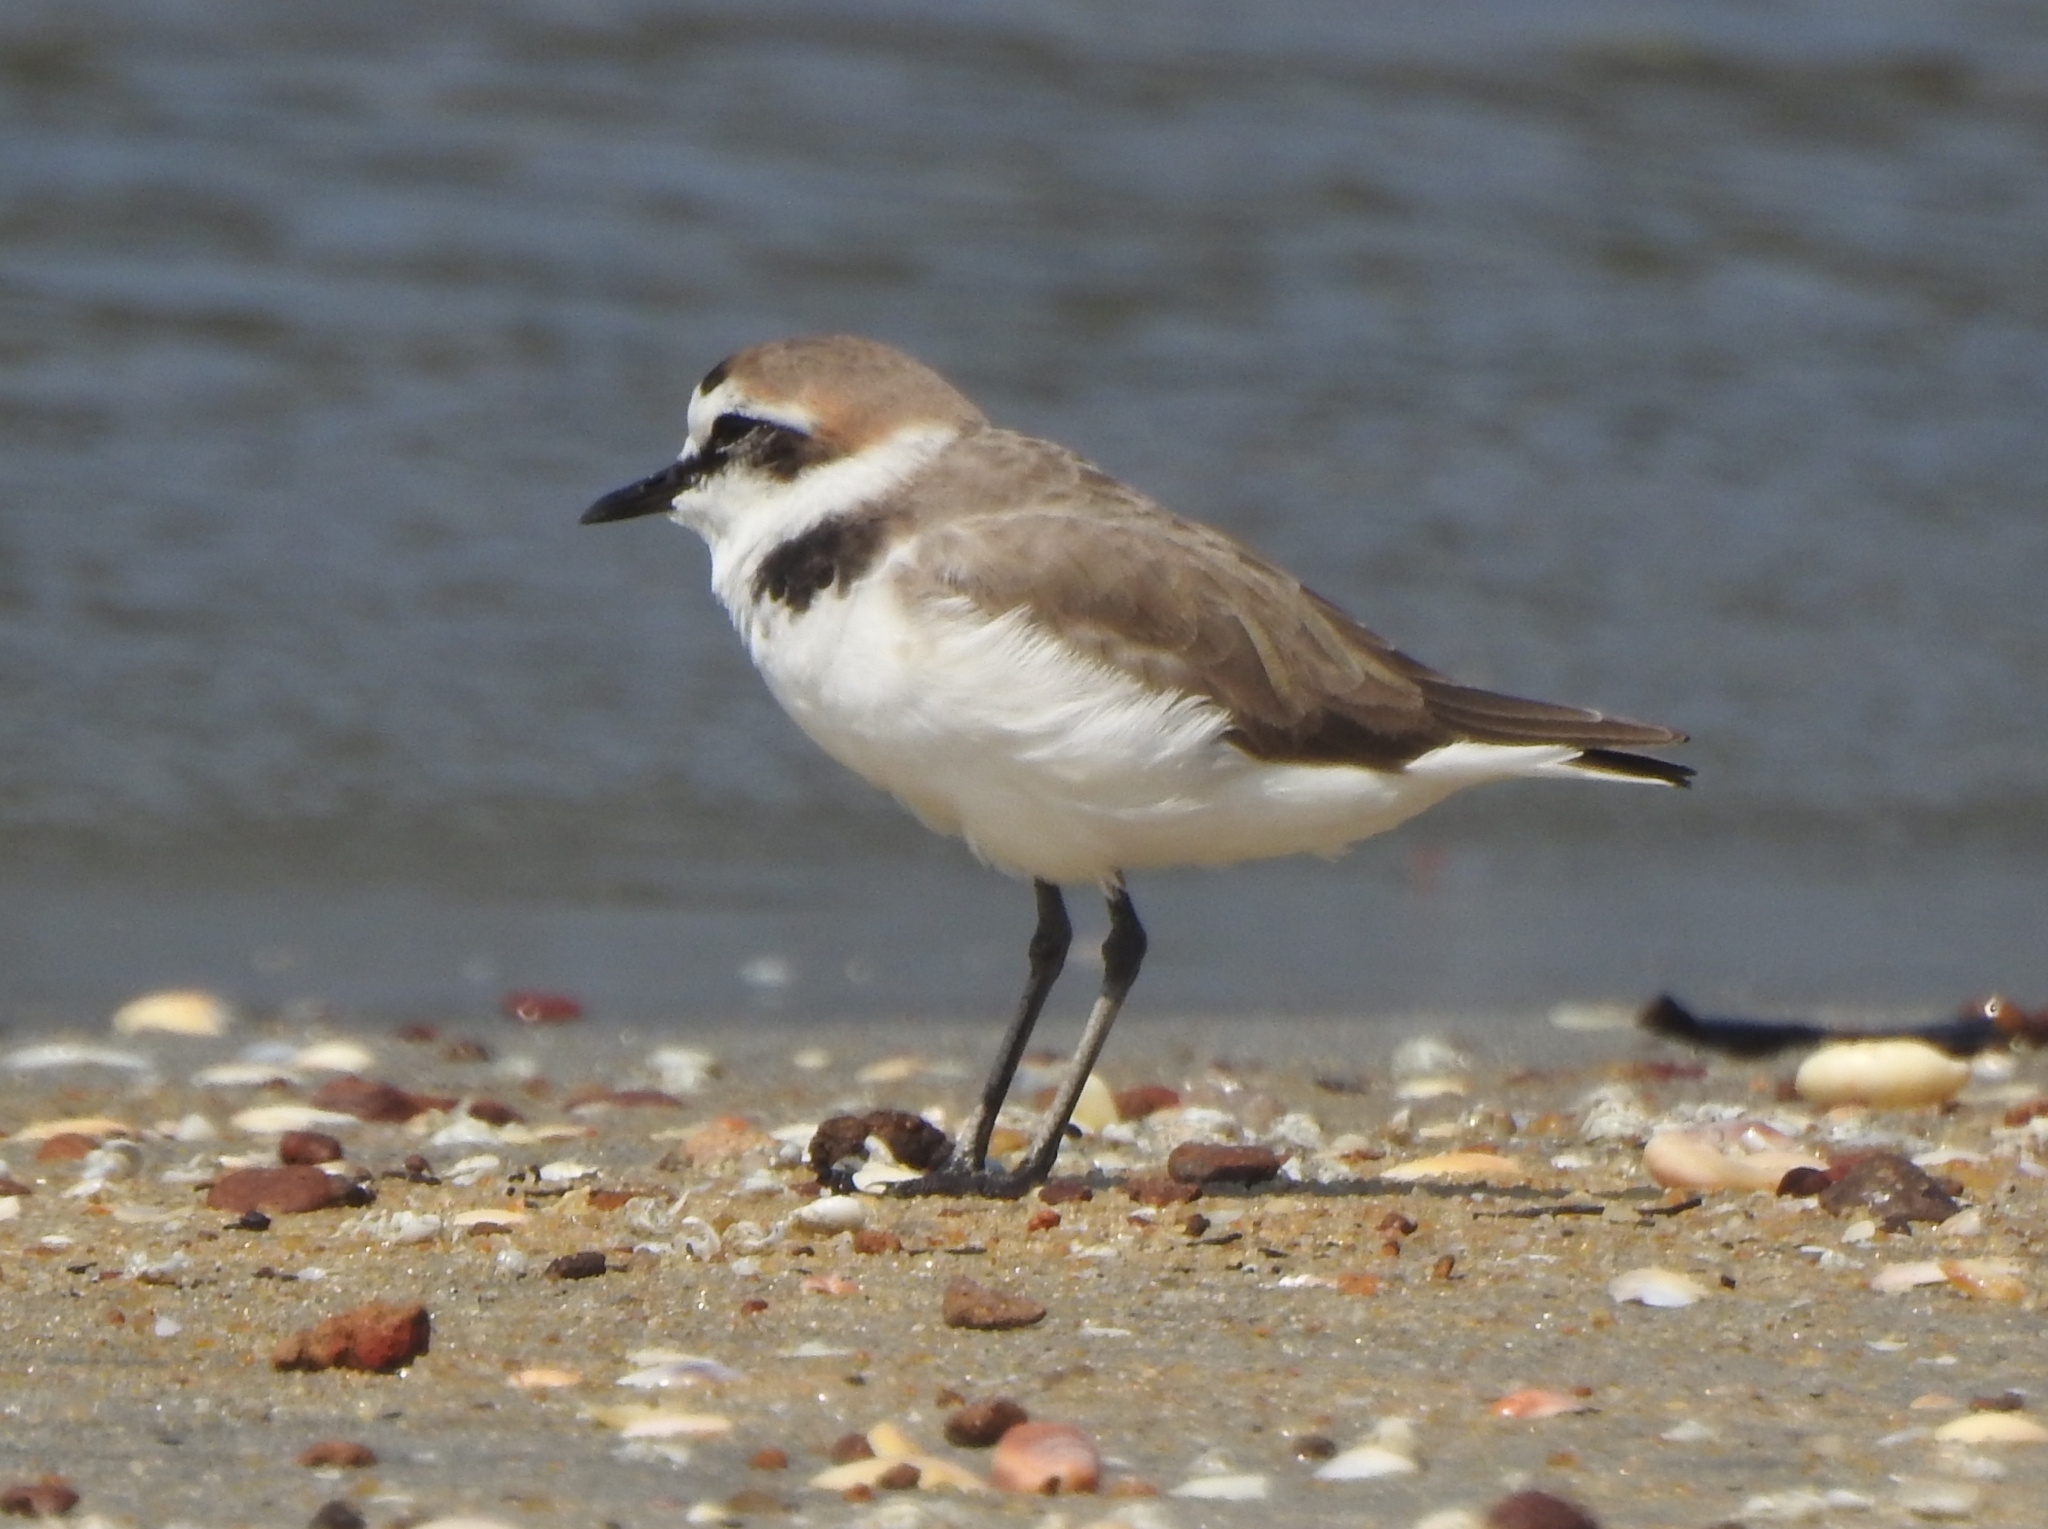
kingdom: Animalia
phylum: Chordata
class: Aves
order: Charadriiformes
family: Charadriidae
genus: Charadrius
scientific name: Charadrius alexandrinus
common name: Kentish plover
